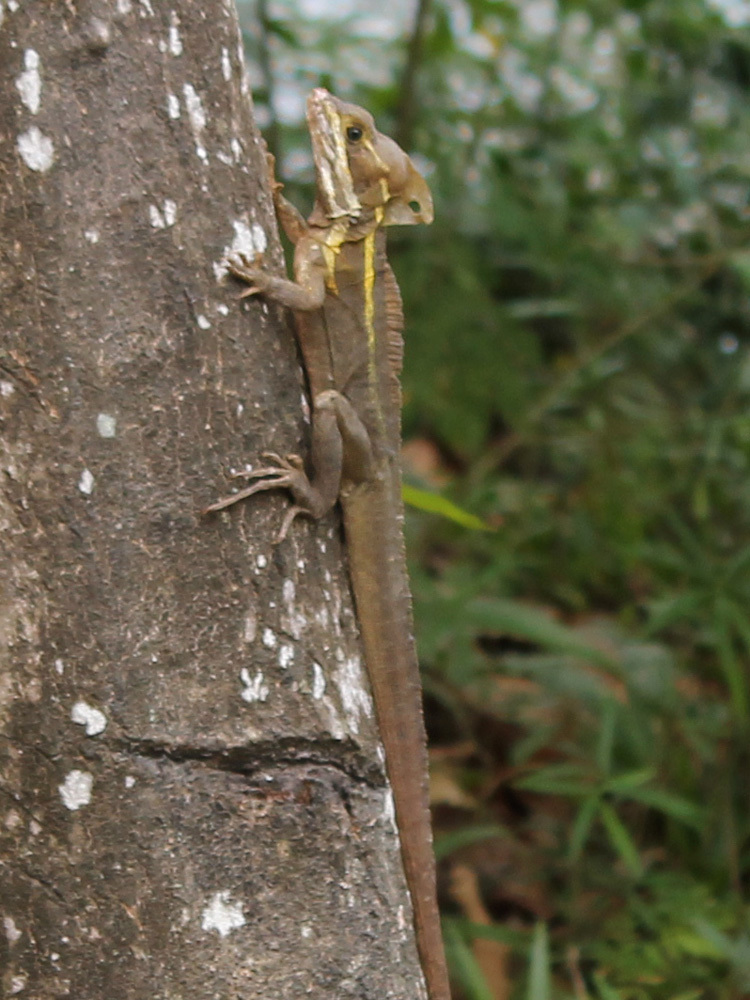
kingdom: Animalia
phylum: Chordata
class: Squamata
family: Corytophanidae
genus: Basiliscus
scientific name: Basiliscus vittatus
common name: Brown basilisk
